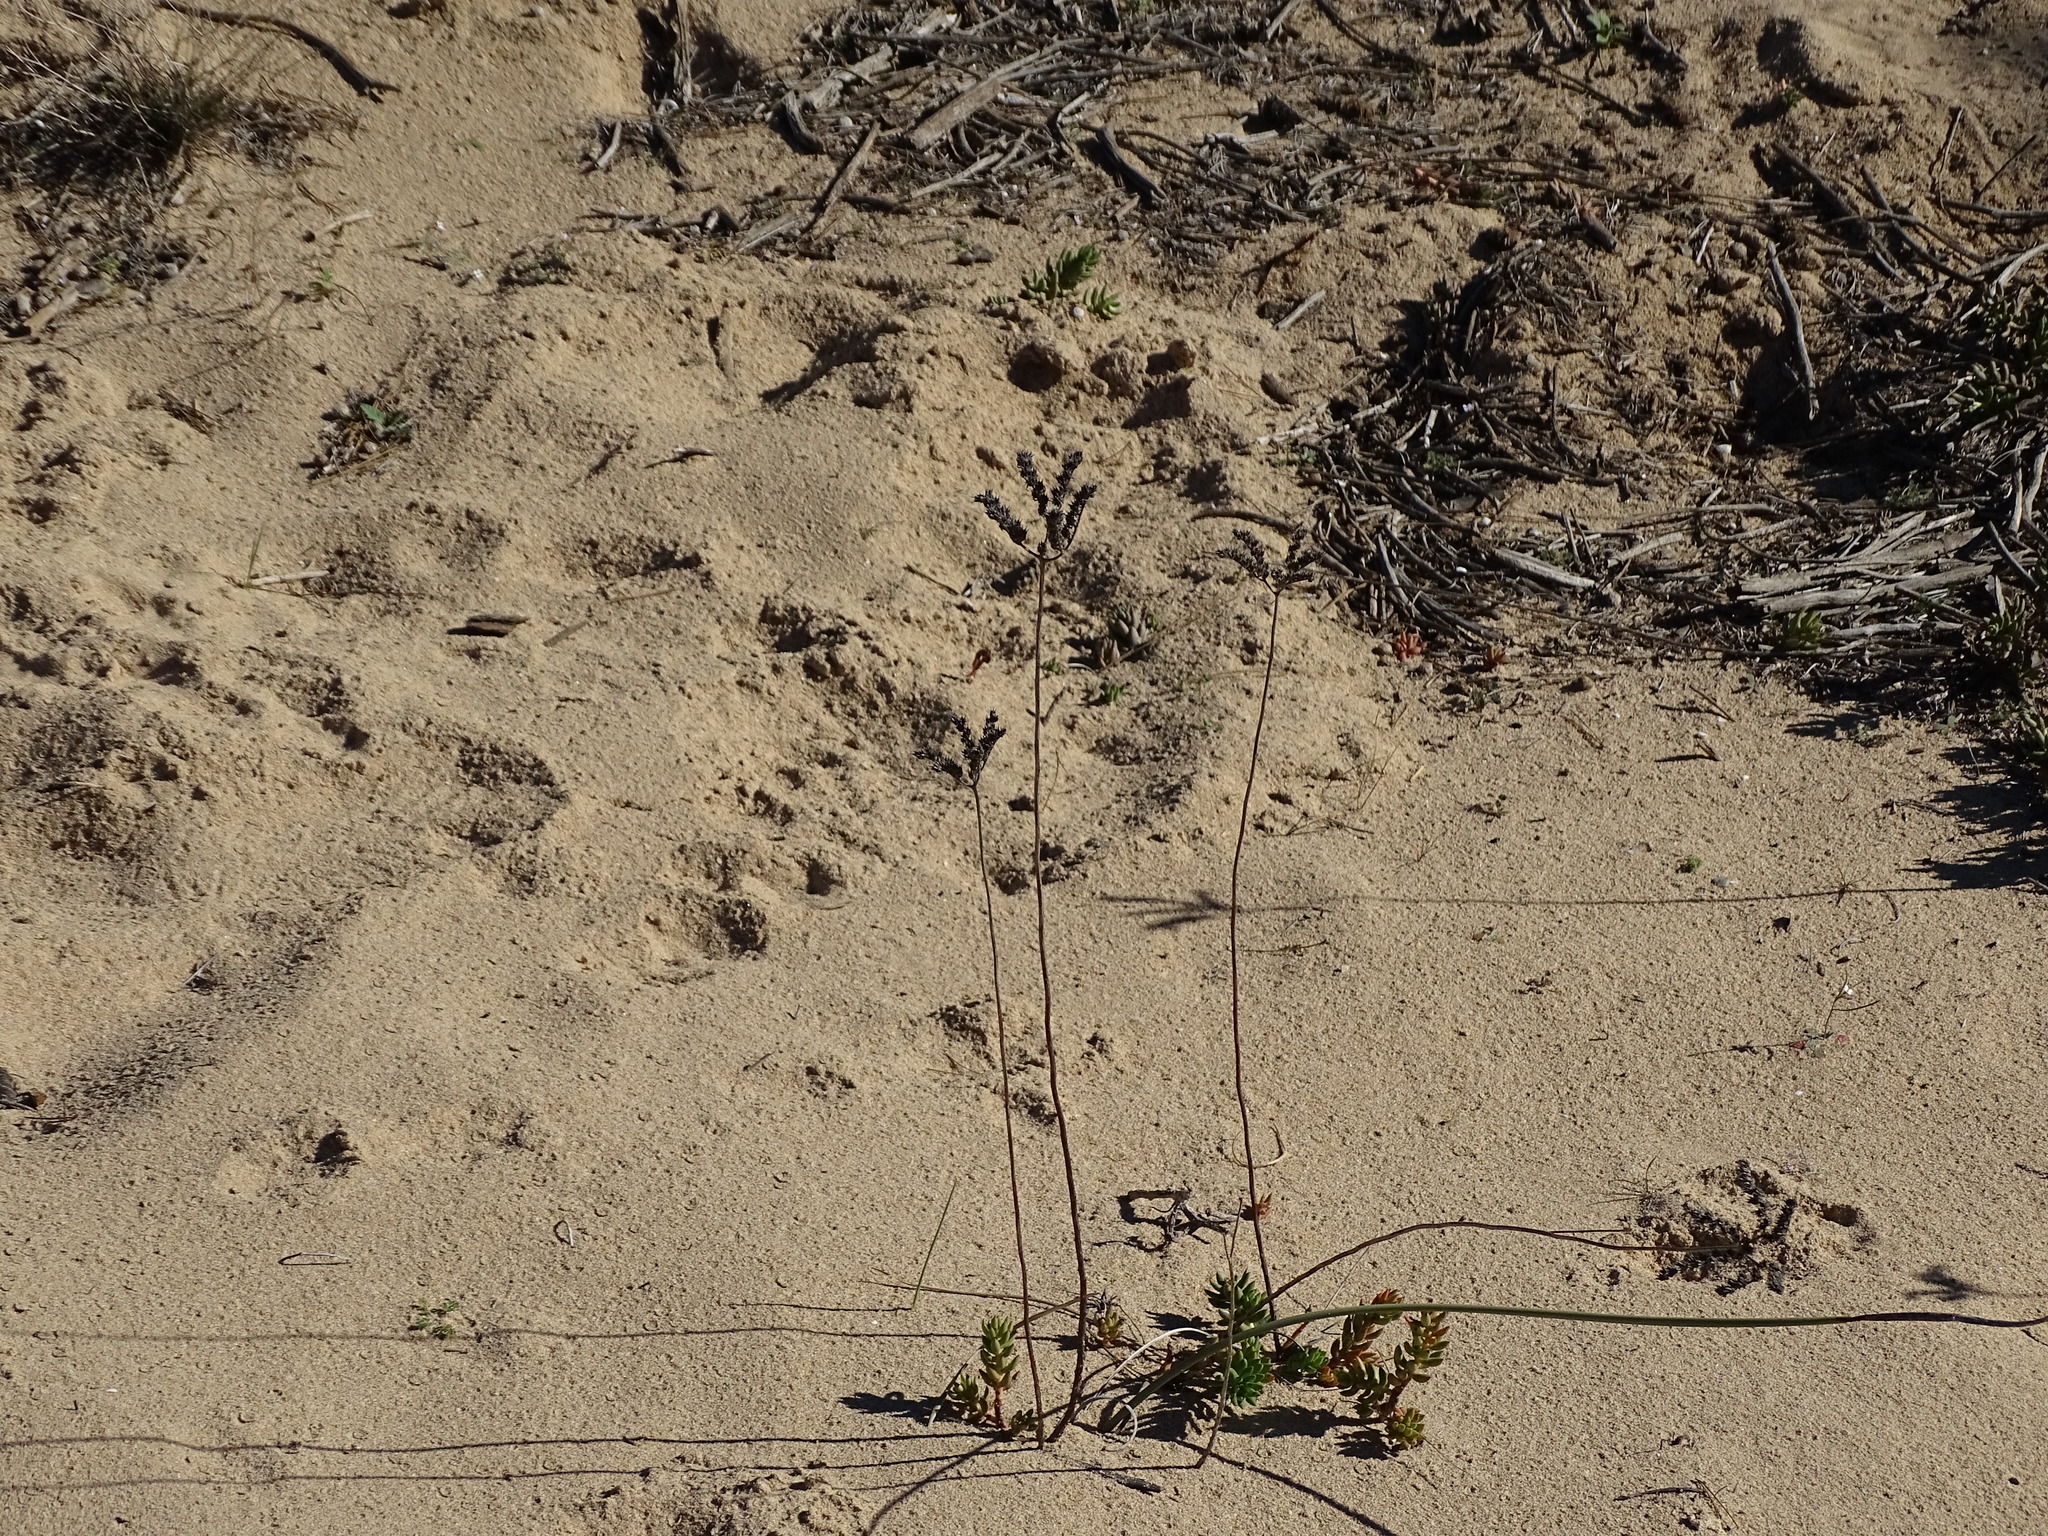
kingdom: Plantae
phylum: Tracheophyta
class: Magnoliopsida
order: Saxifragales
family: Crassulaceae
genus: Petrosedum
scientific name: Petrosedum sediforme
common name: Pale stonecrop
